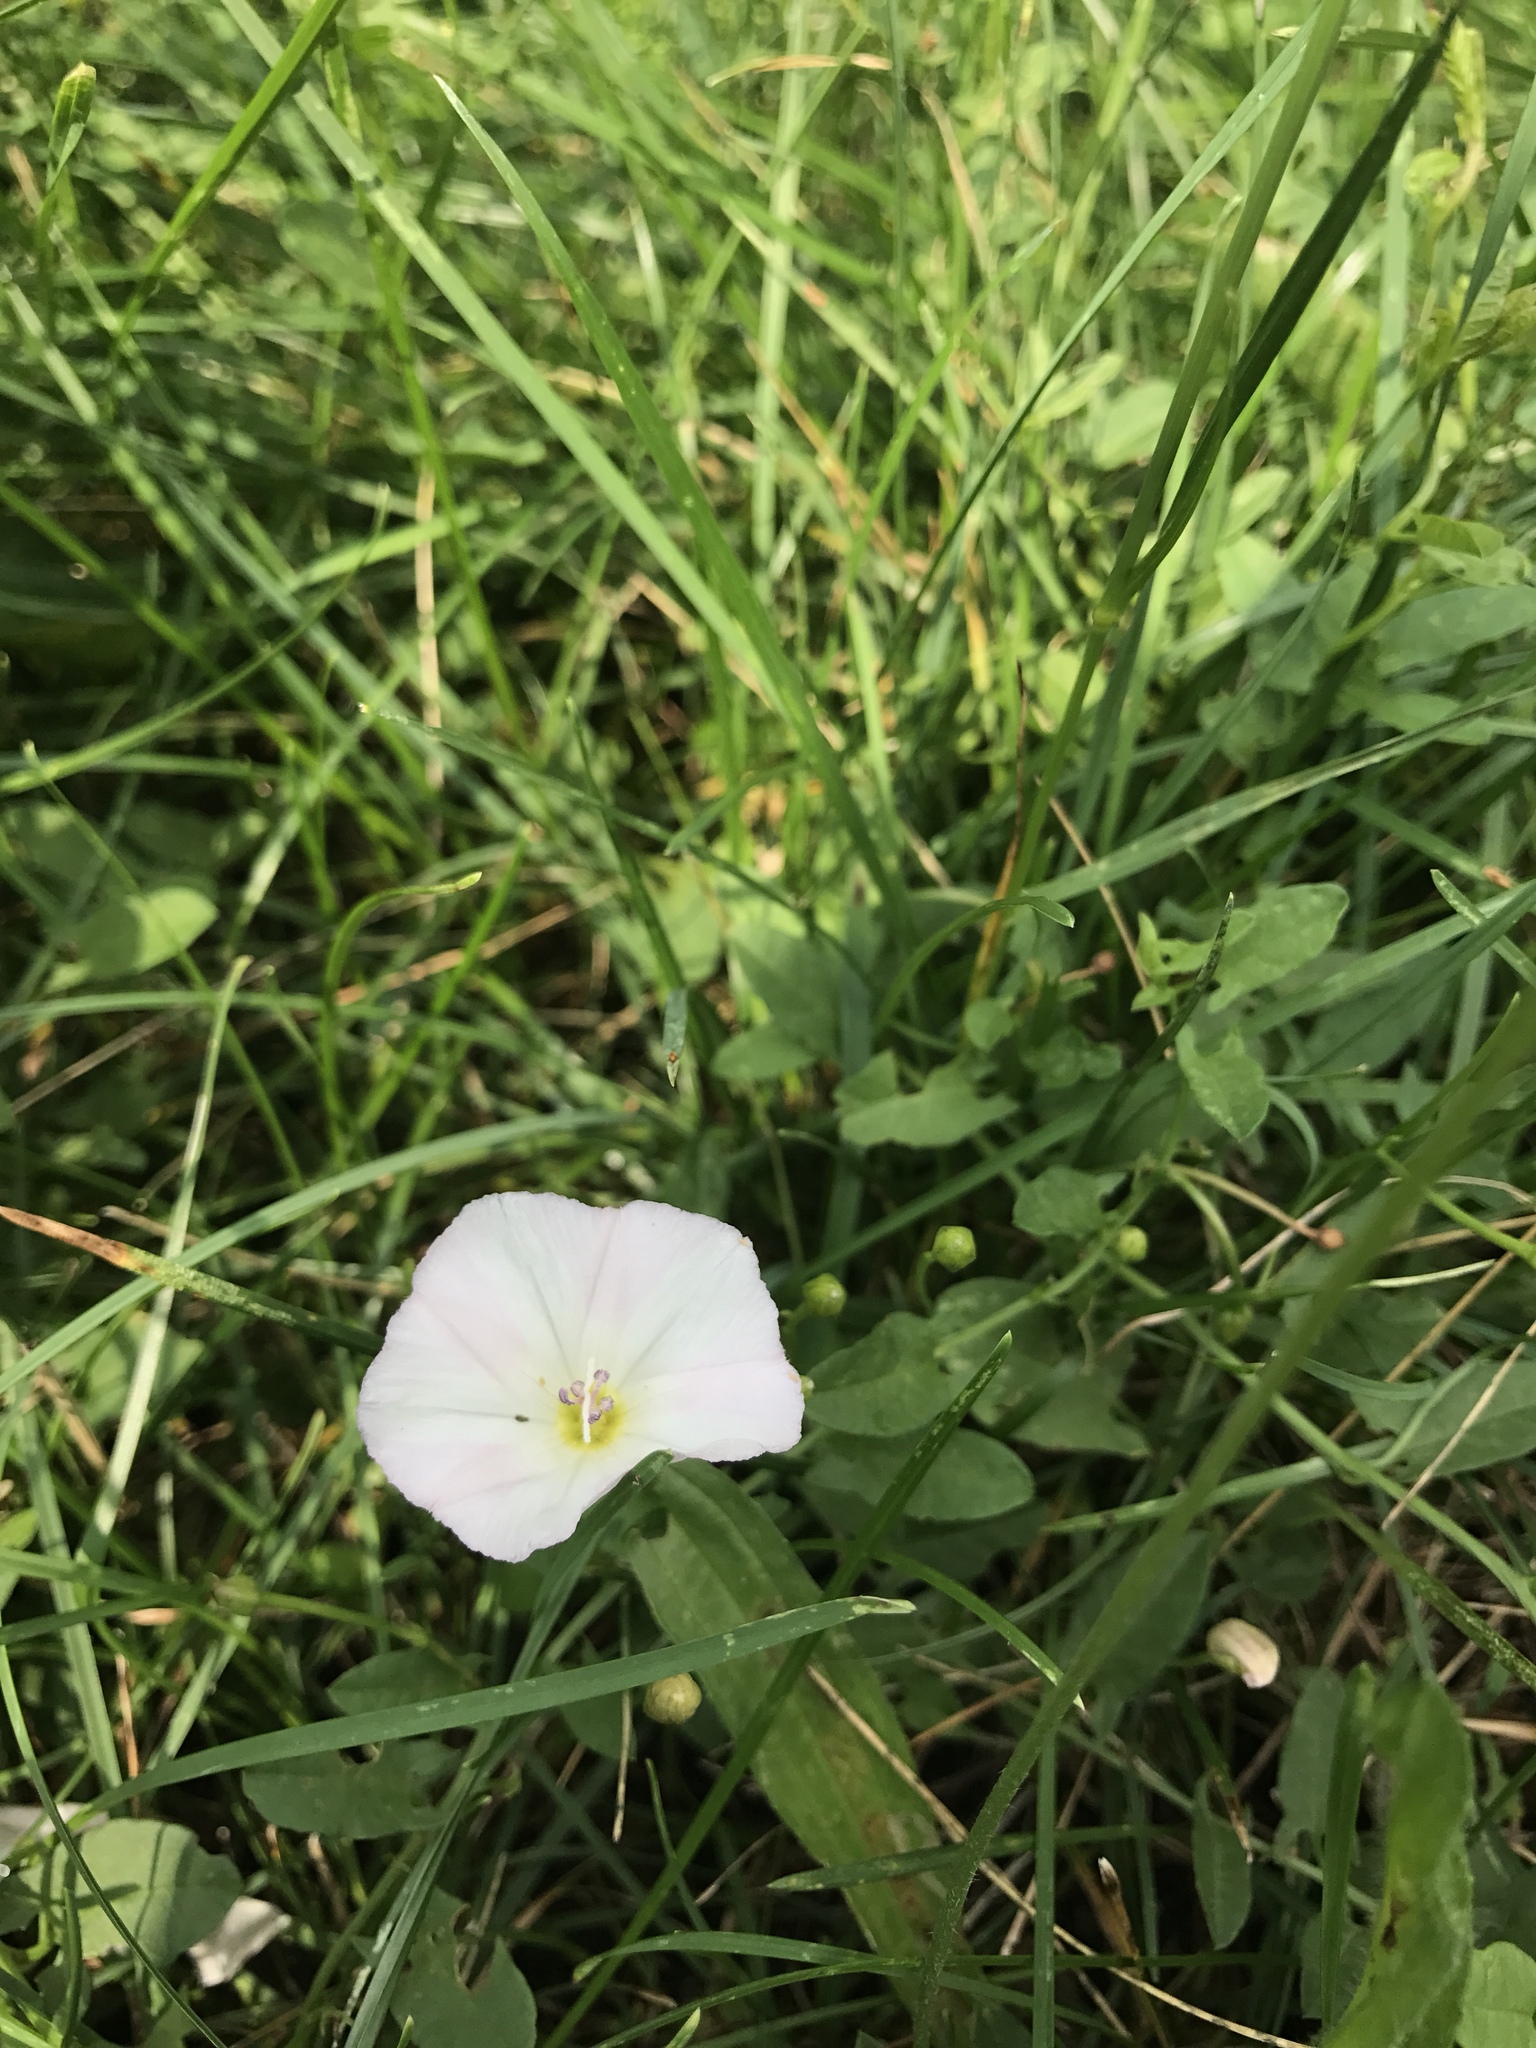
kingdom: Plantae
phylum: Tracheophyta
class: Magnoliopsida
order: Solanales
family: Convolvulaceae
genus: Convolvulus
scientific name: Convolvulus arvensis
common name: Field bindweed
